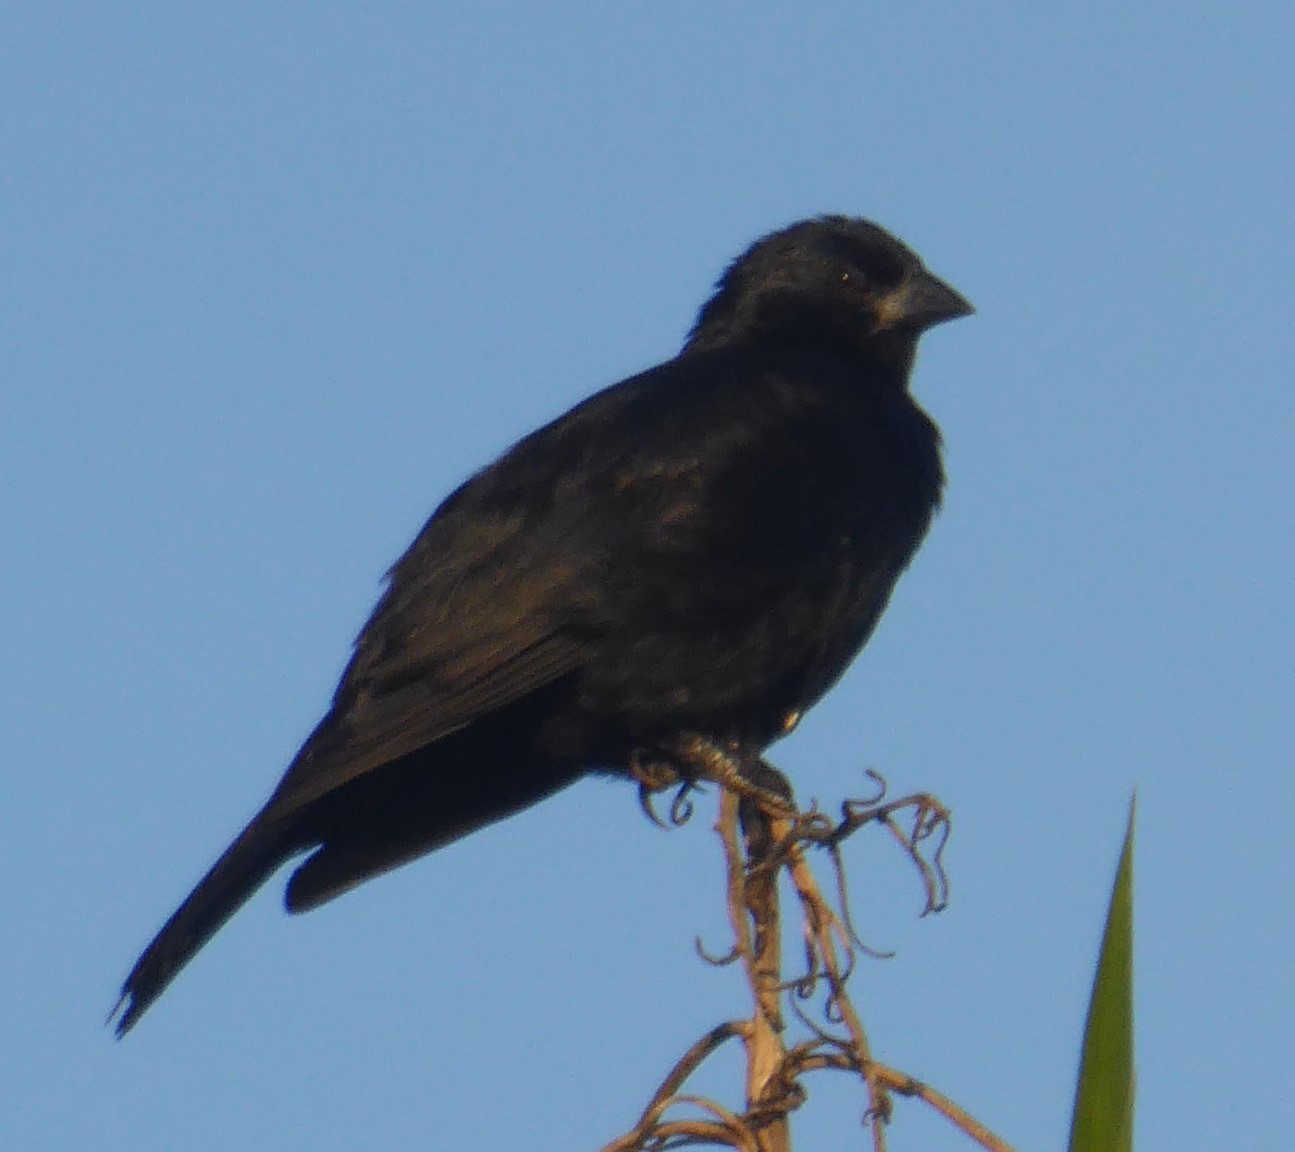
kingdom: Animalia
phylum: Chordata
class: Aves
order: Passeriformes
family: Icteridae
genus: Molothrus
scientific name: Molothrus bonariensis
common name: Shiny cowbird
